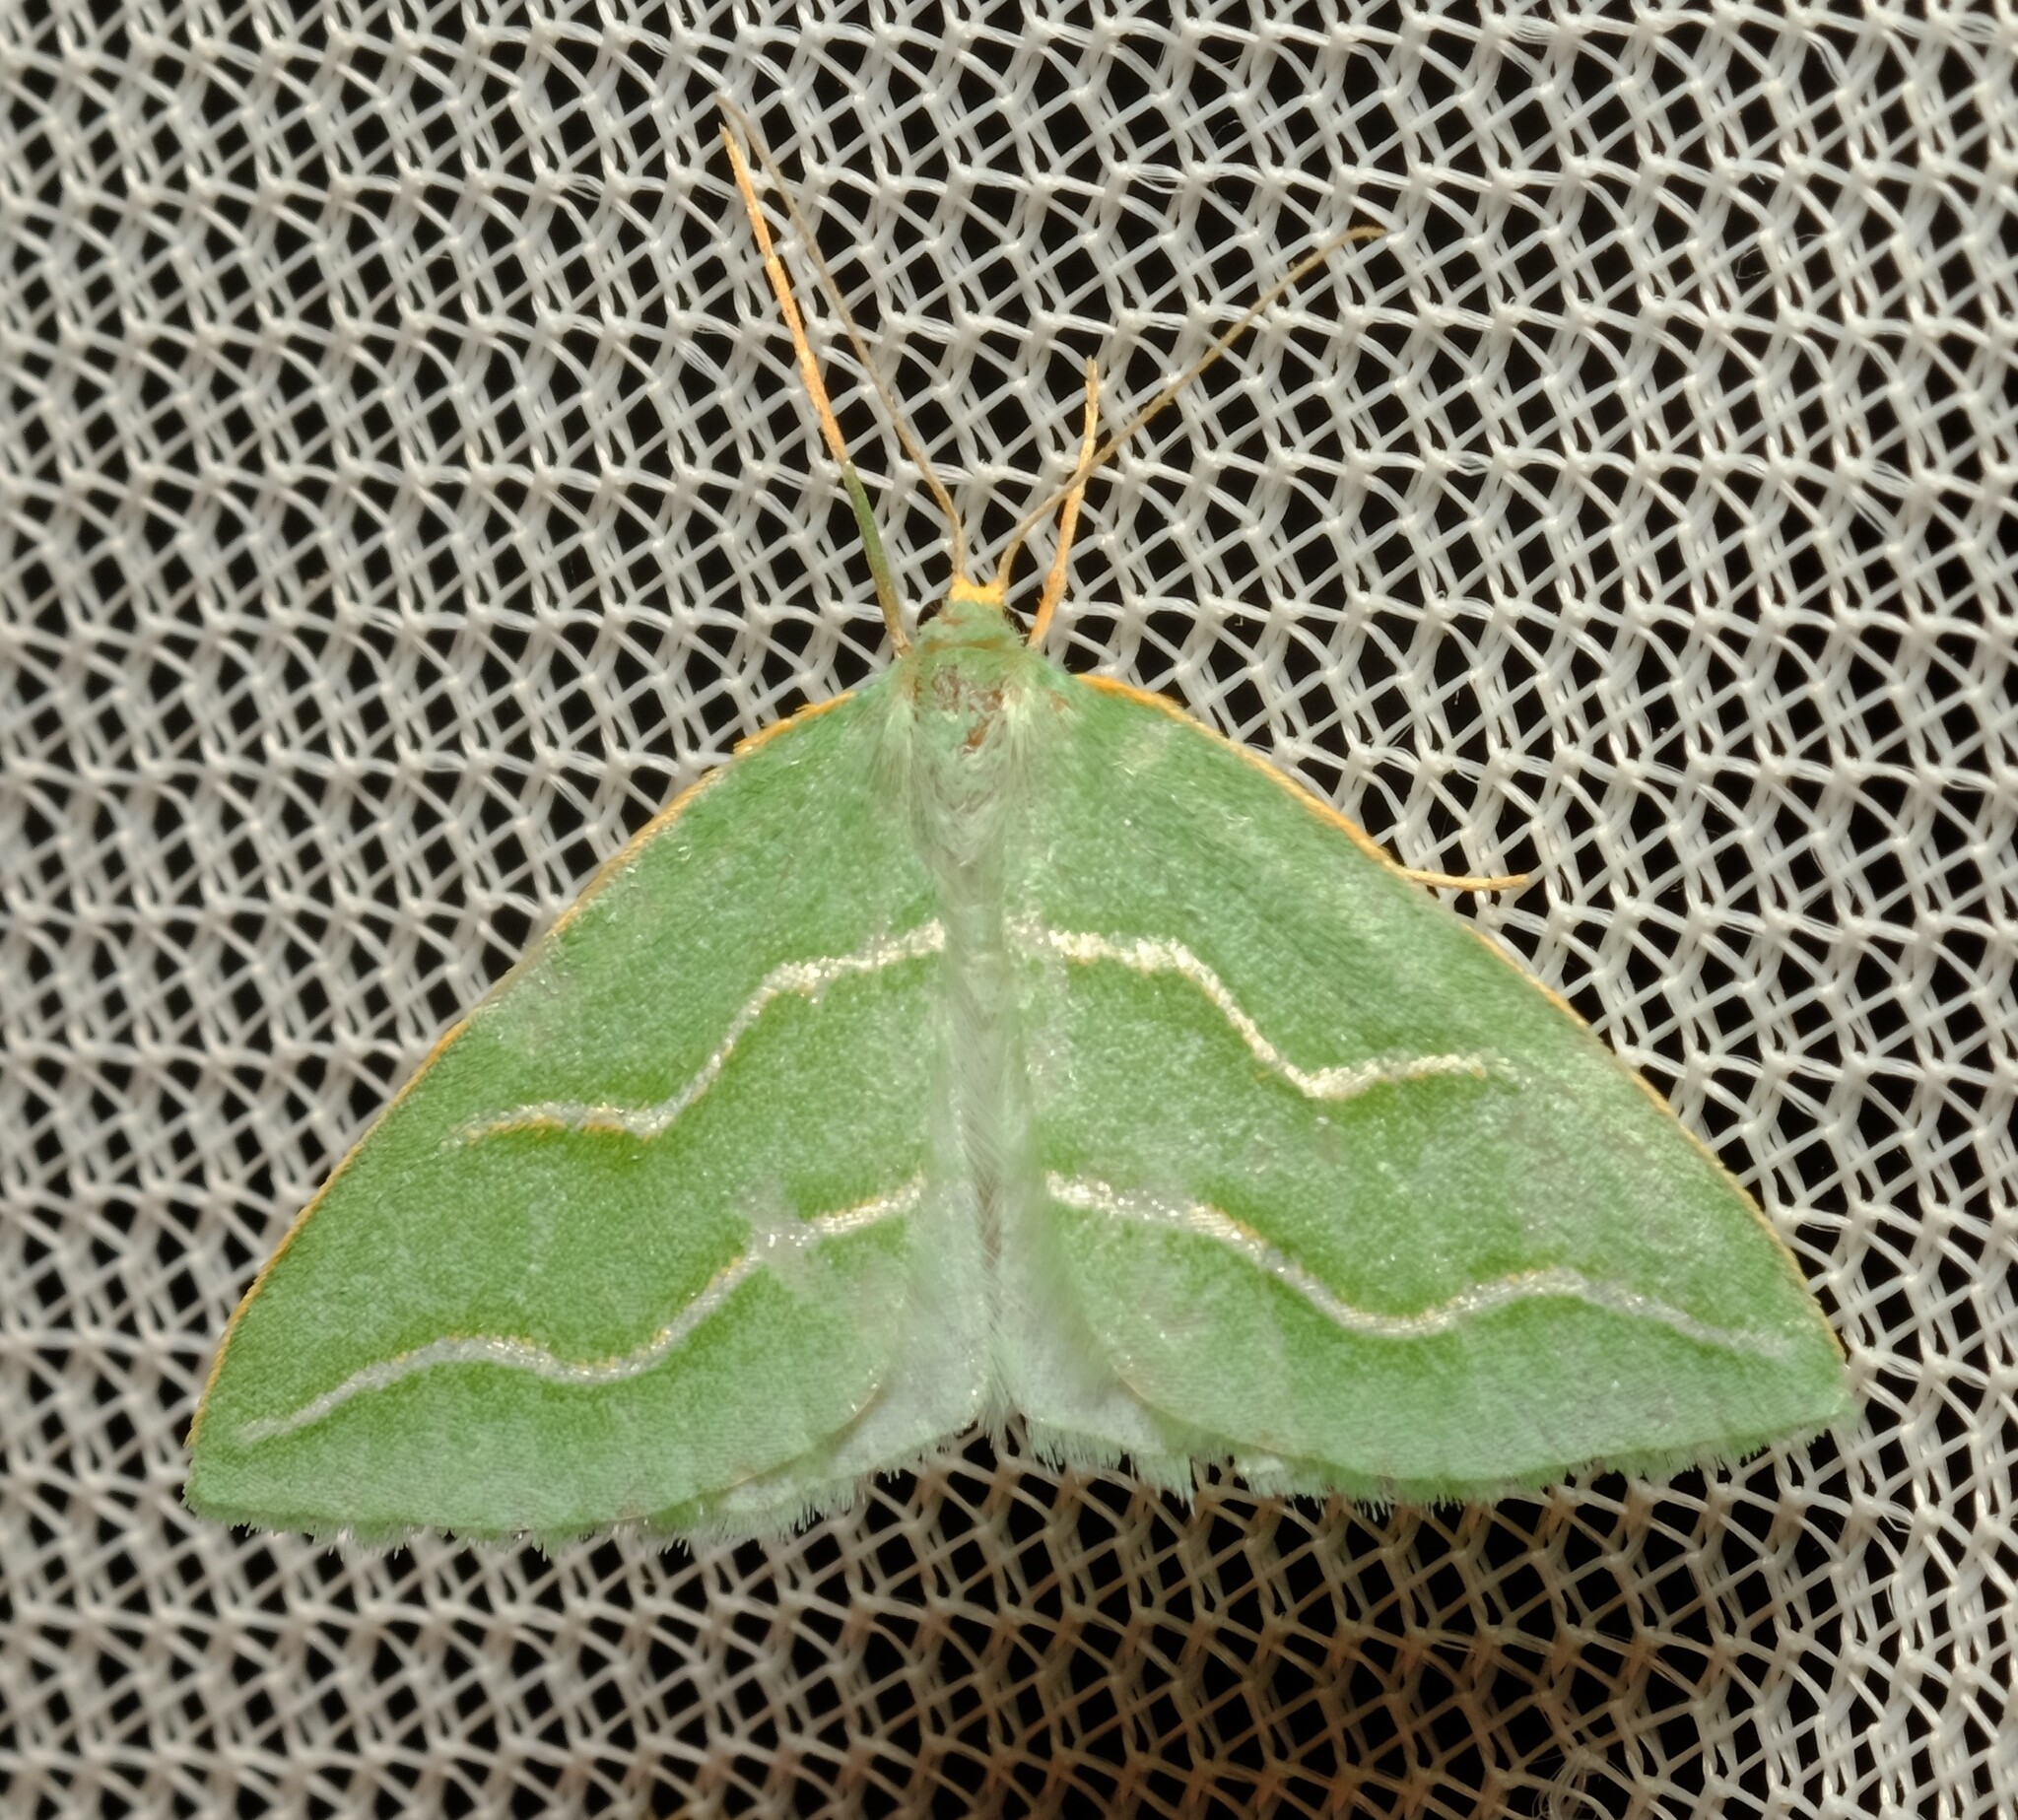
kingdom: Animalia
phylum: Arthropoda
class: Insecta
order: Lepidoptera
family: Geometridae
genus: Euloxia
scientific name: Euloxia meandraria
